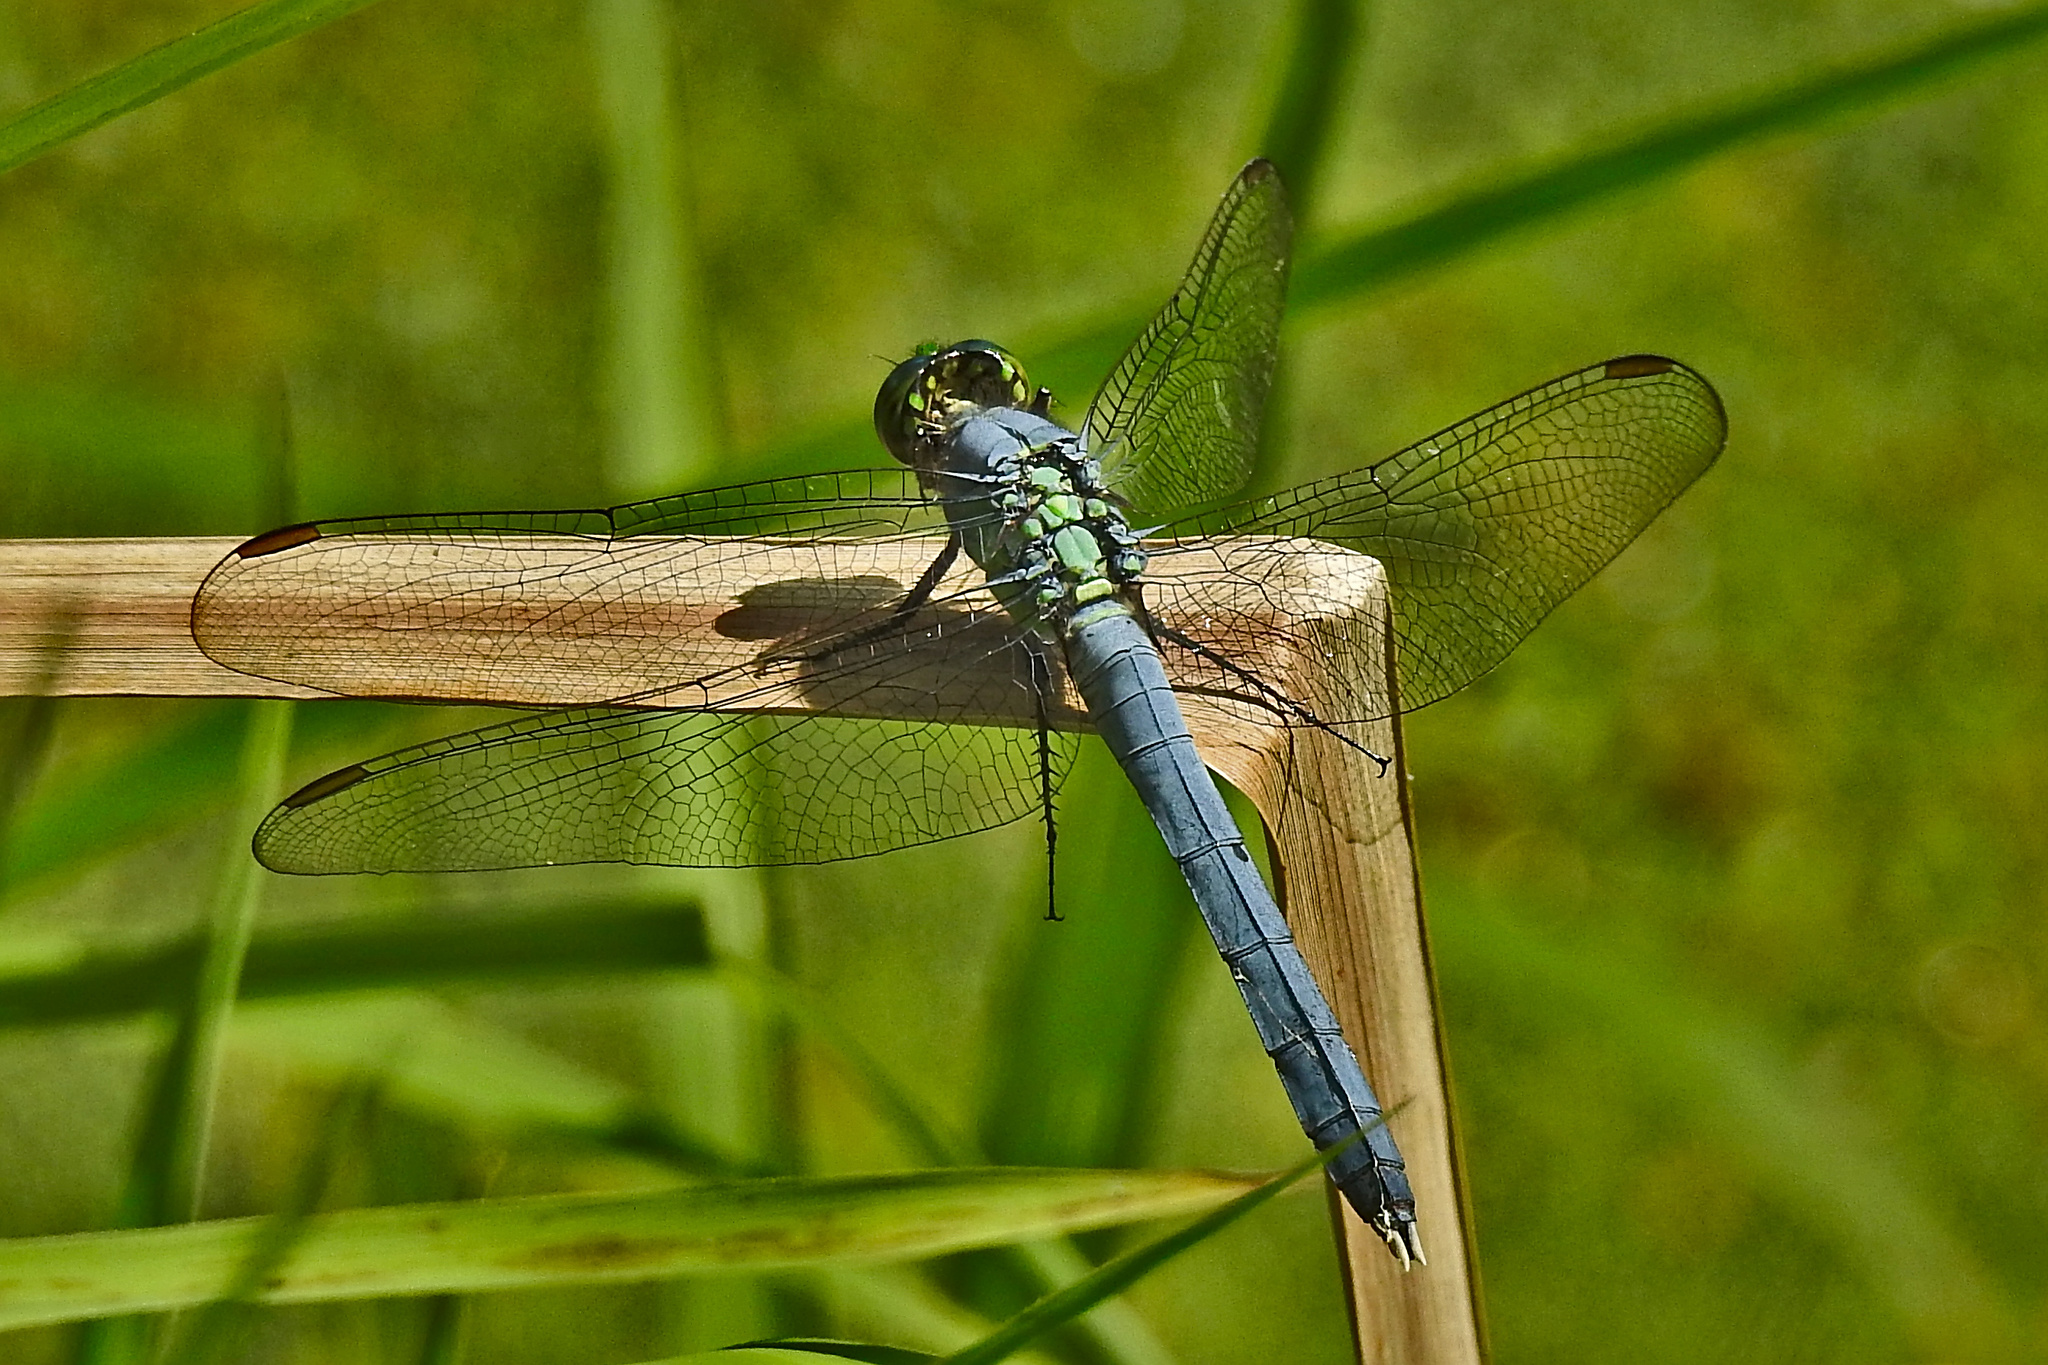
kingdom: Animalia
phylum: Arthropoda
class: Insecta
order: Odonata
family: Libellulidae
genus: Erythemis
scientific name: Erythemis simplicicollis
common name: Eastern pondhawk
